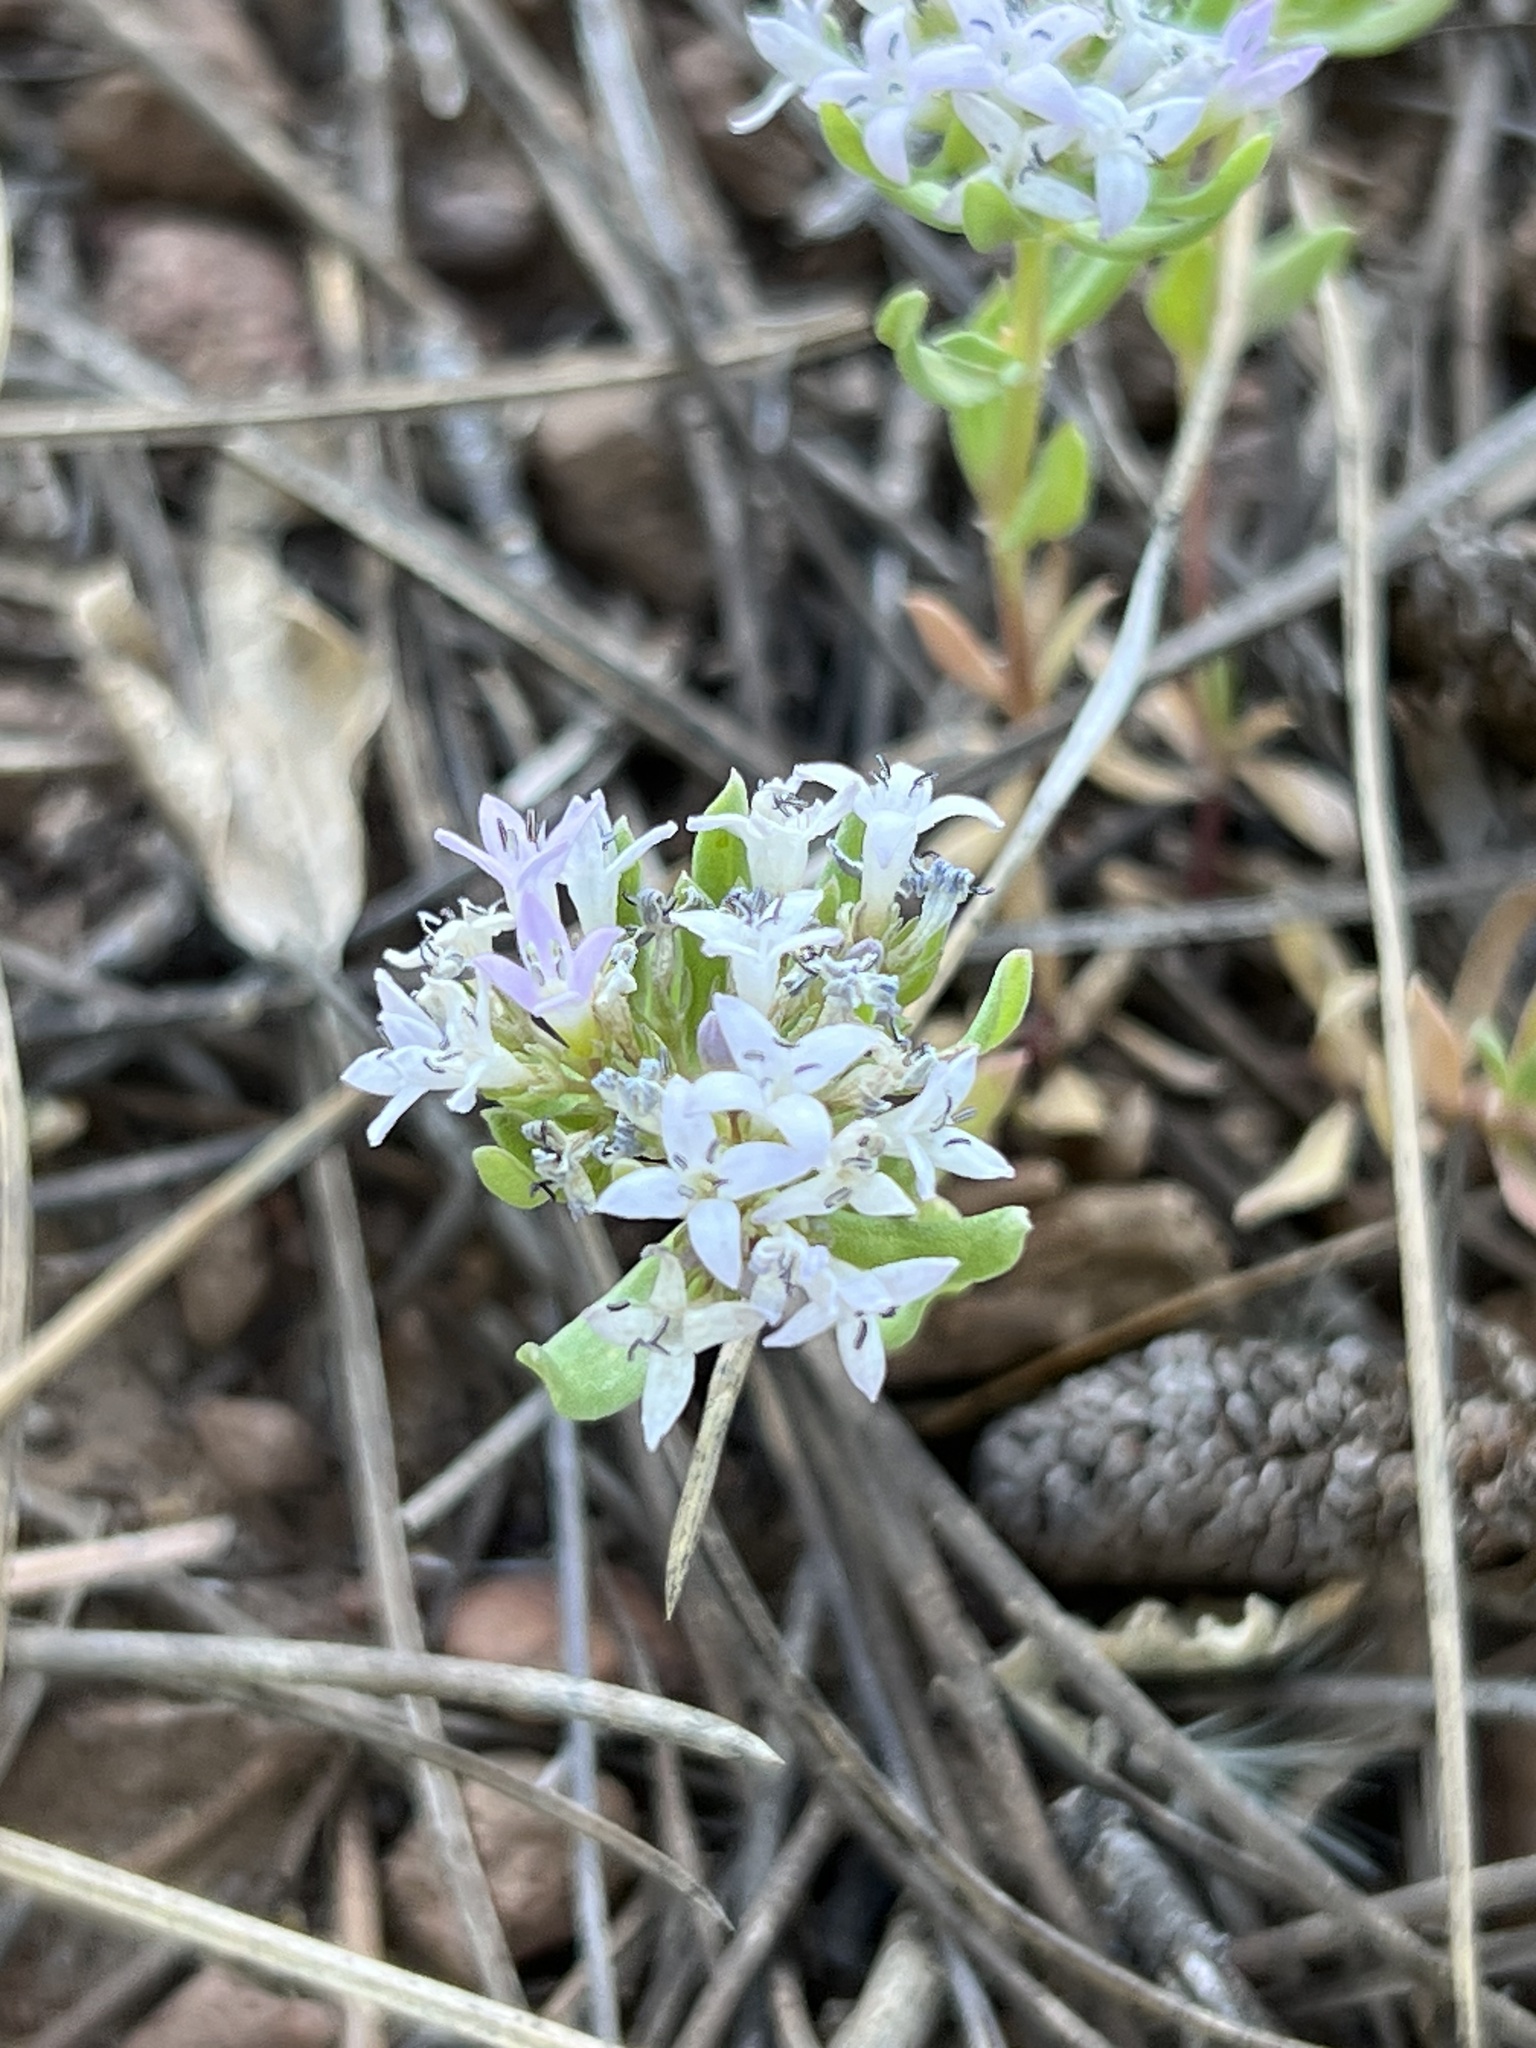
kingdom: Plantae
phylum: Tracheophyta
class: Magnoliopsida
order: Gentianales
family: Rubiaceae
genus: Houstonia
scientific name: Houstonia wrightii
